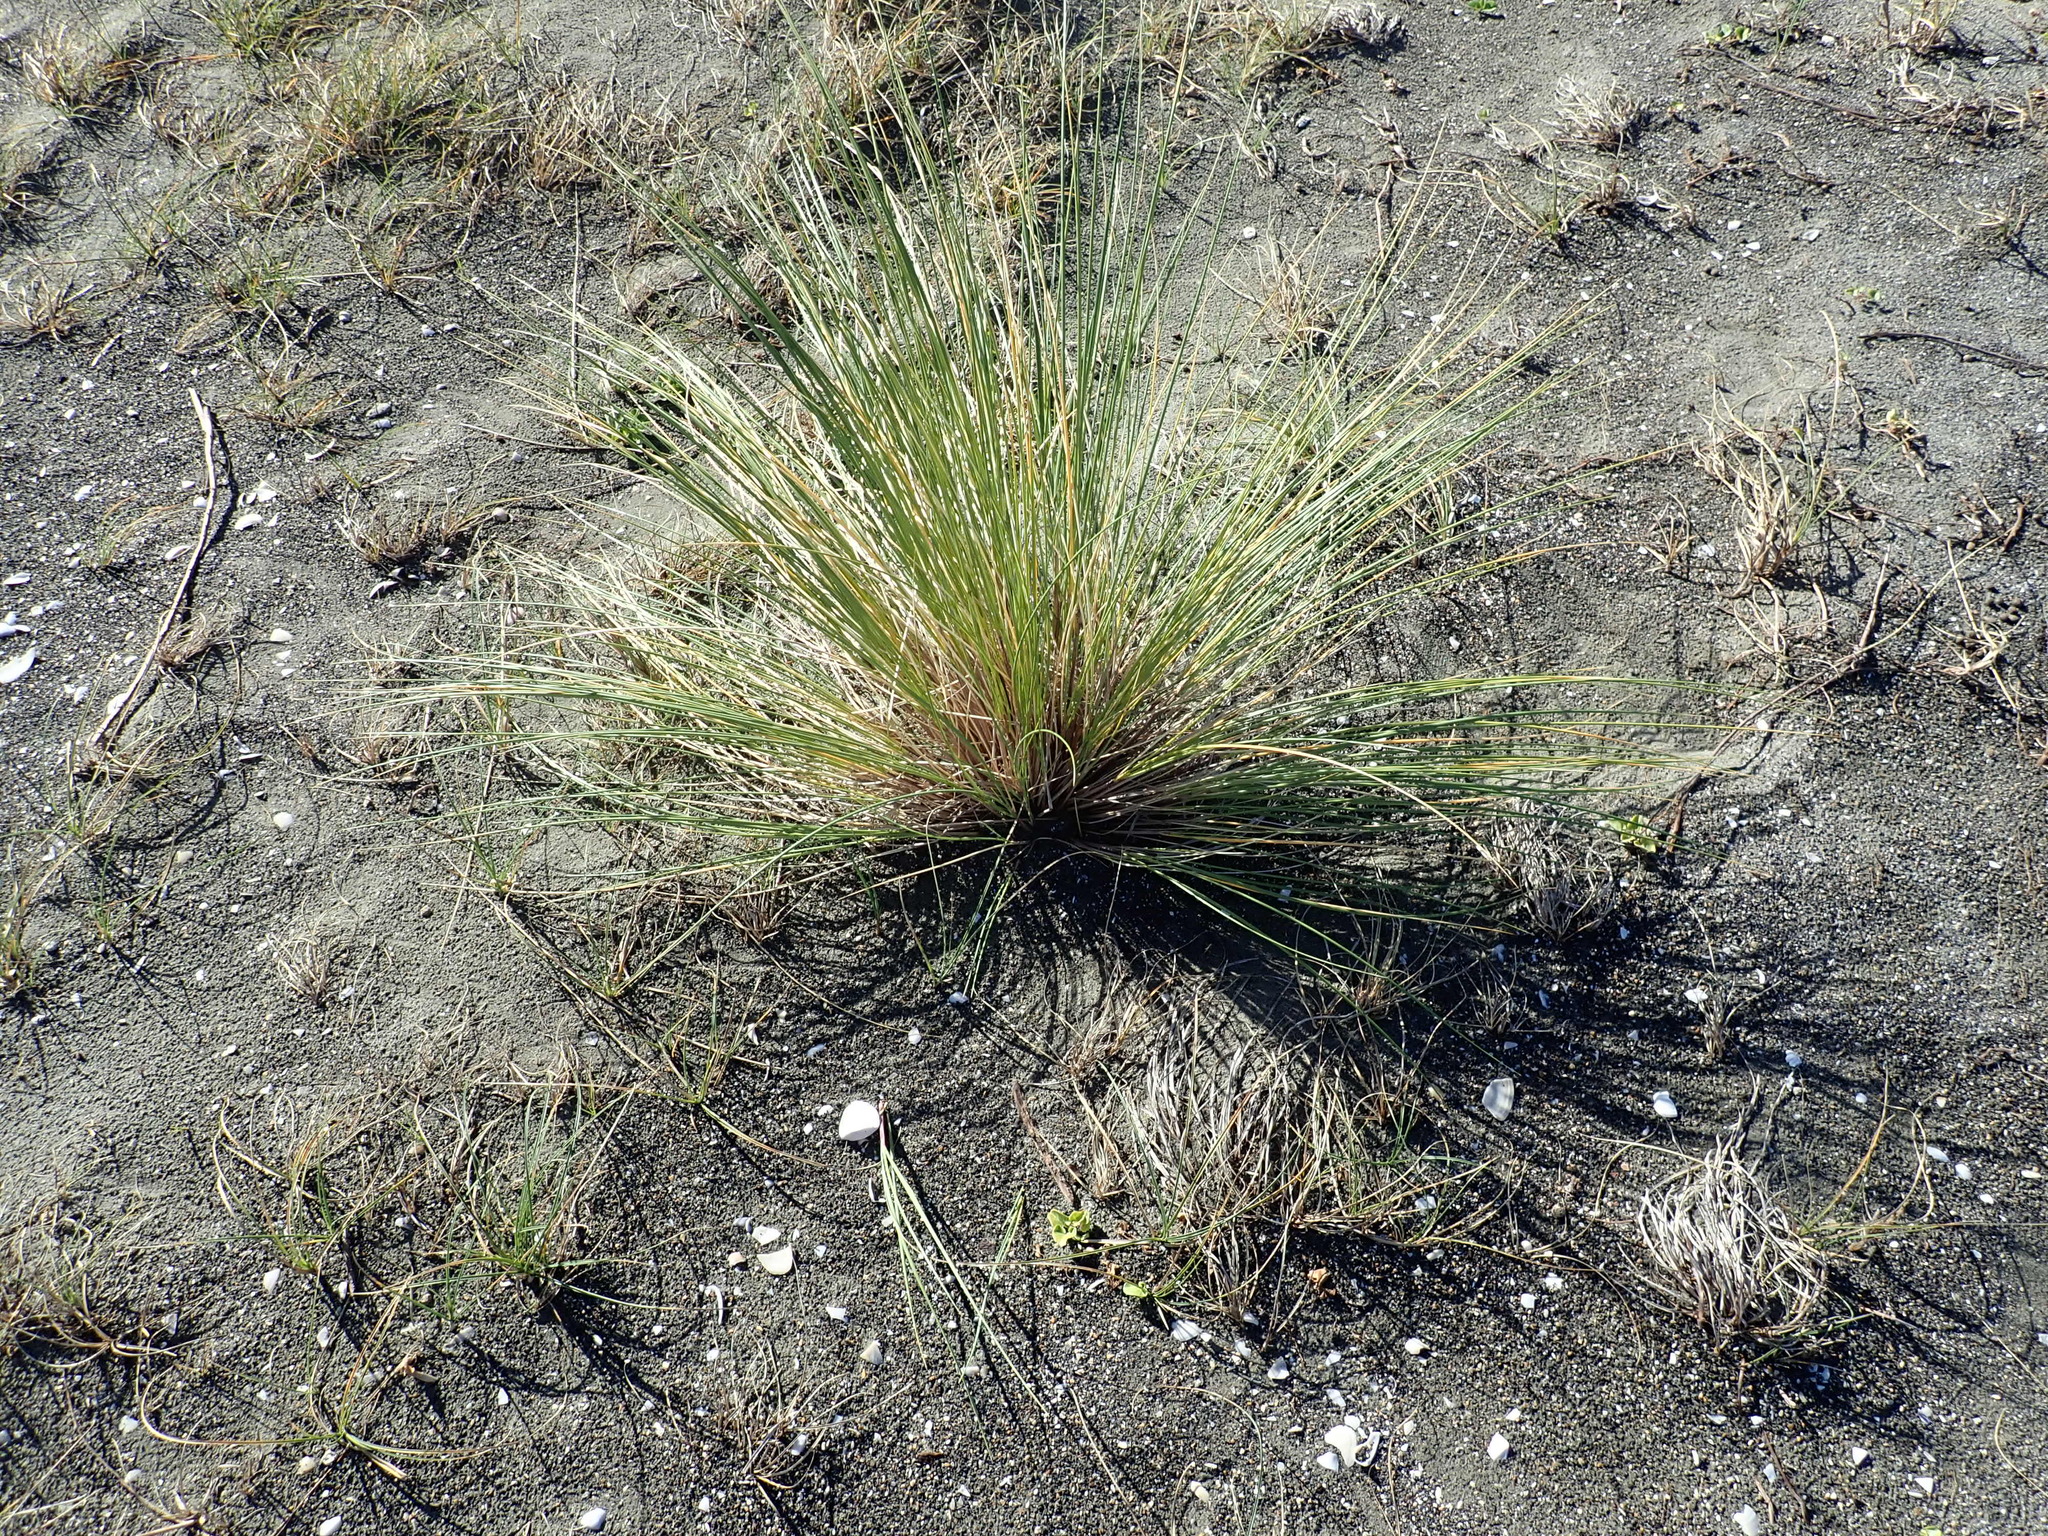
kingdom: Plantae
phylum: Tracheophyta
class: Liliopsida
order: Poales
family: Poaceae
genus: Calamagrostis
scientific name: Calamagrostis arenaria
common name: European beachgrass
